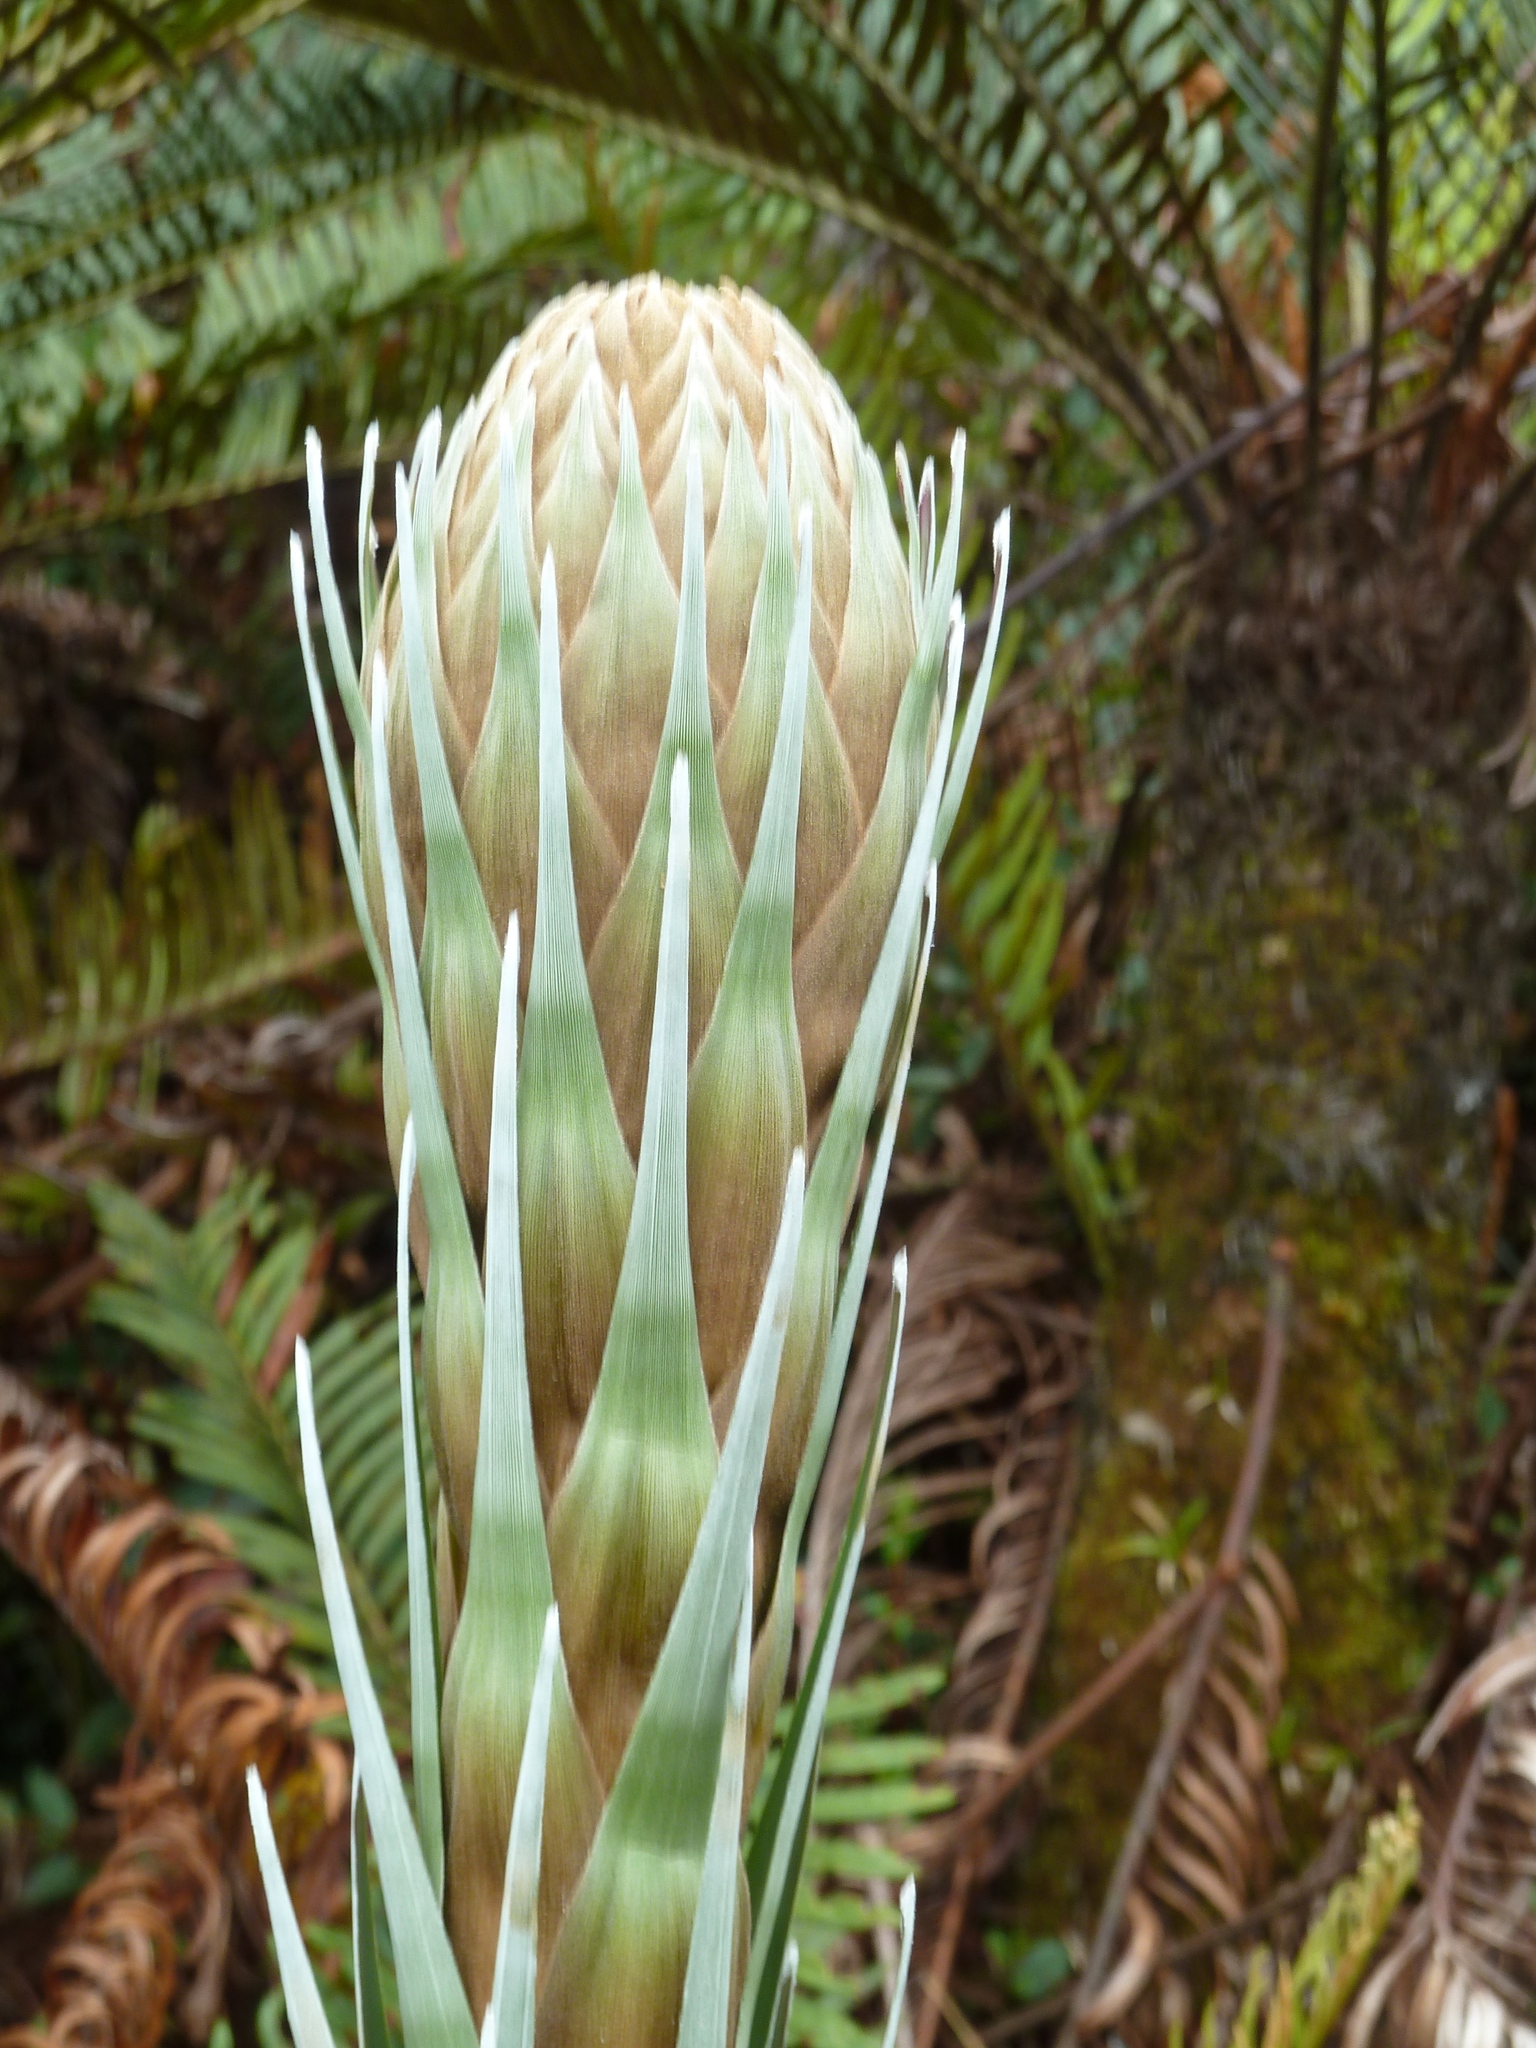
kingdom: Plantae
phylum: Tracheophyta
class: Liliopsida
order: Poales
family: Bromeliaceae
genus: Puya
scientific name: Puya dasylirioides
